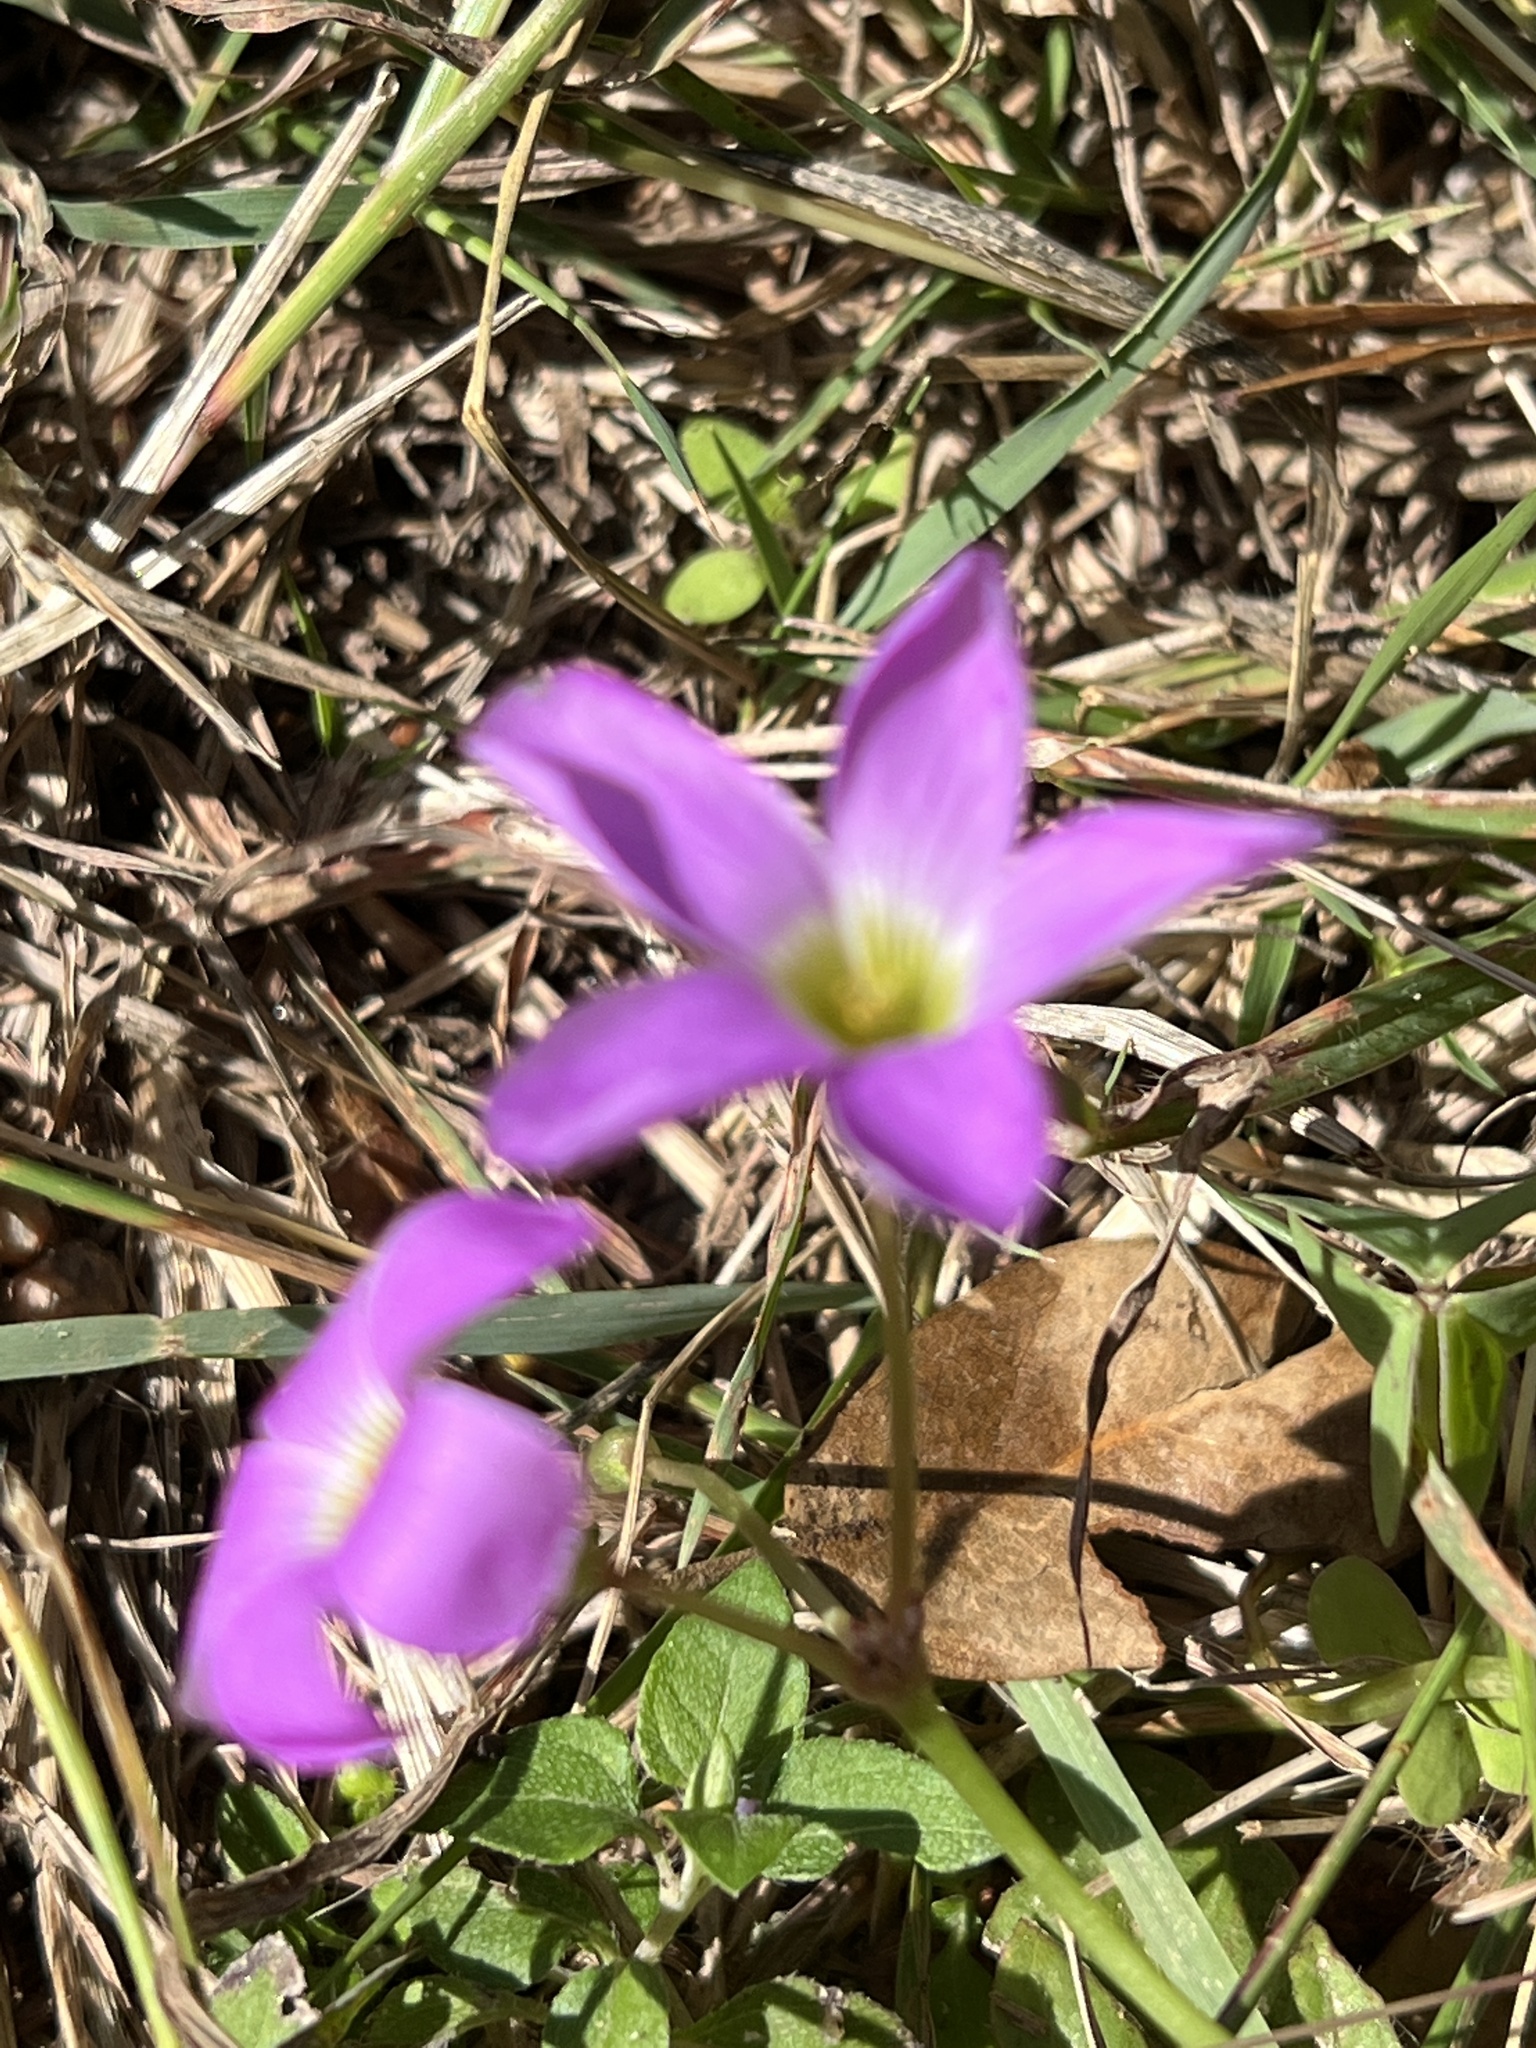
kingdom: Plantae
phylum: Tracheophyta
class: Magnoliopsida
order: Oxalidales
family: Oxalidaceae
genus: Oxalis
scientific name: Oxalis drummondii
